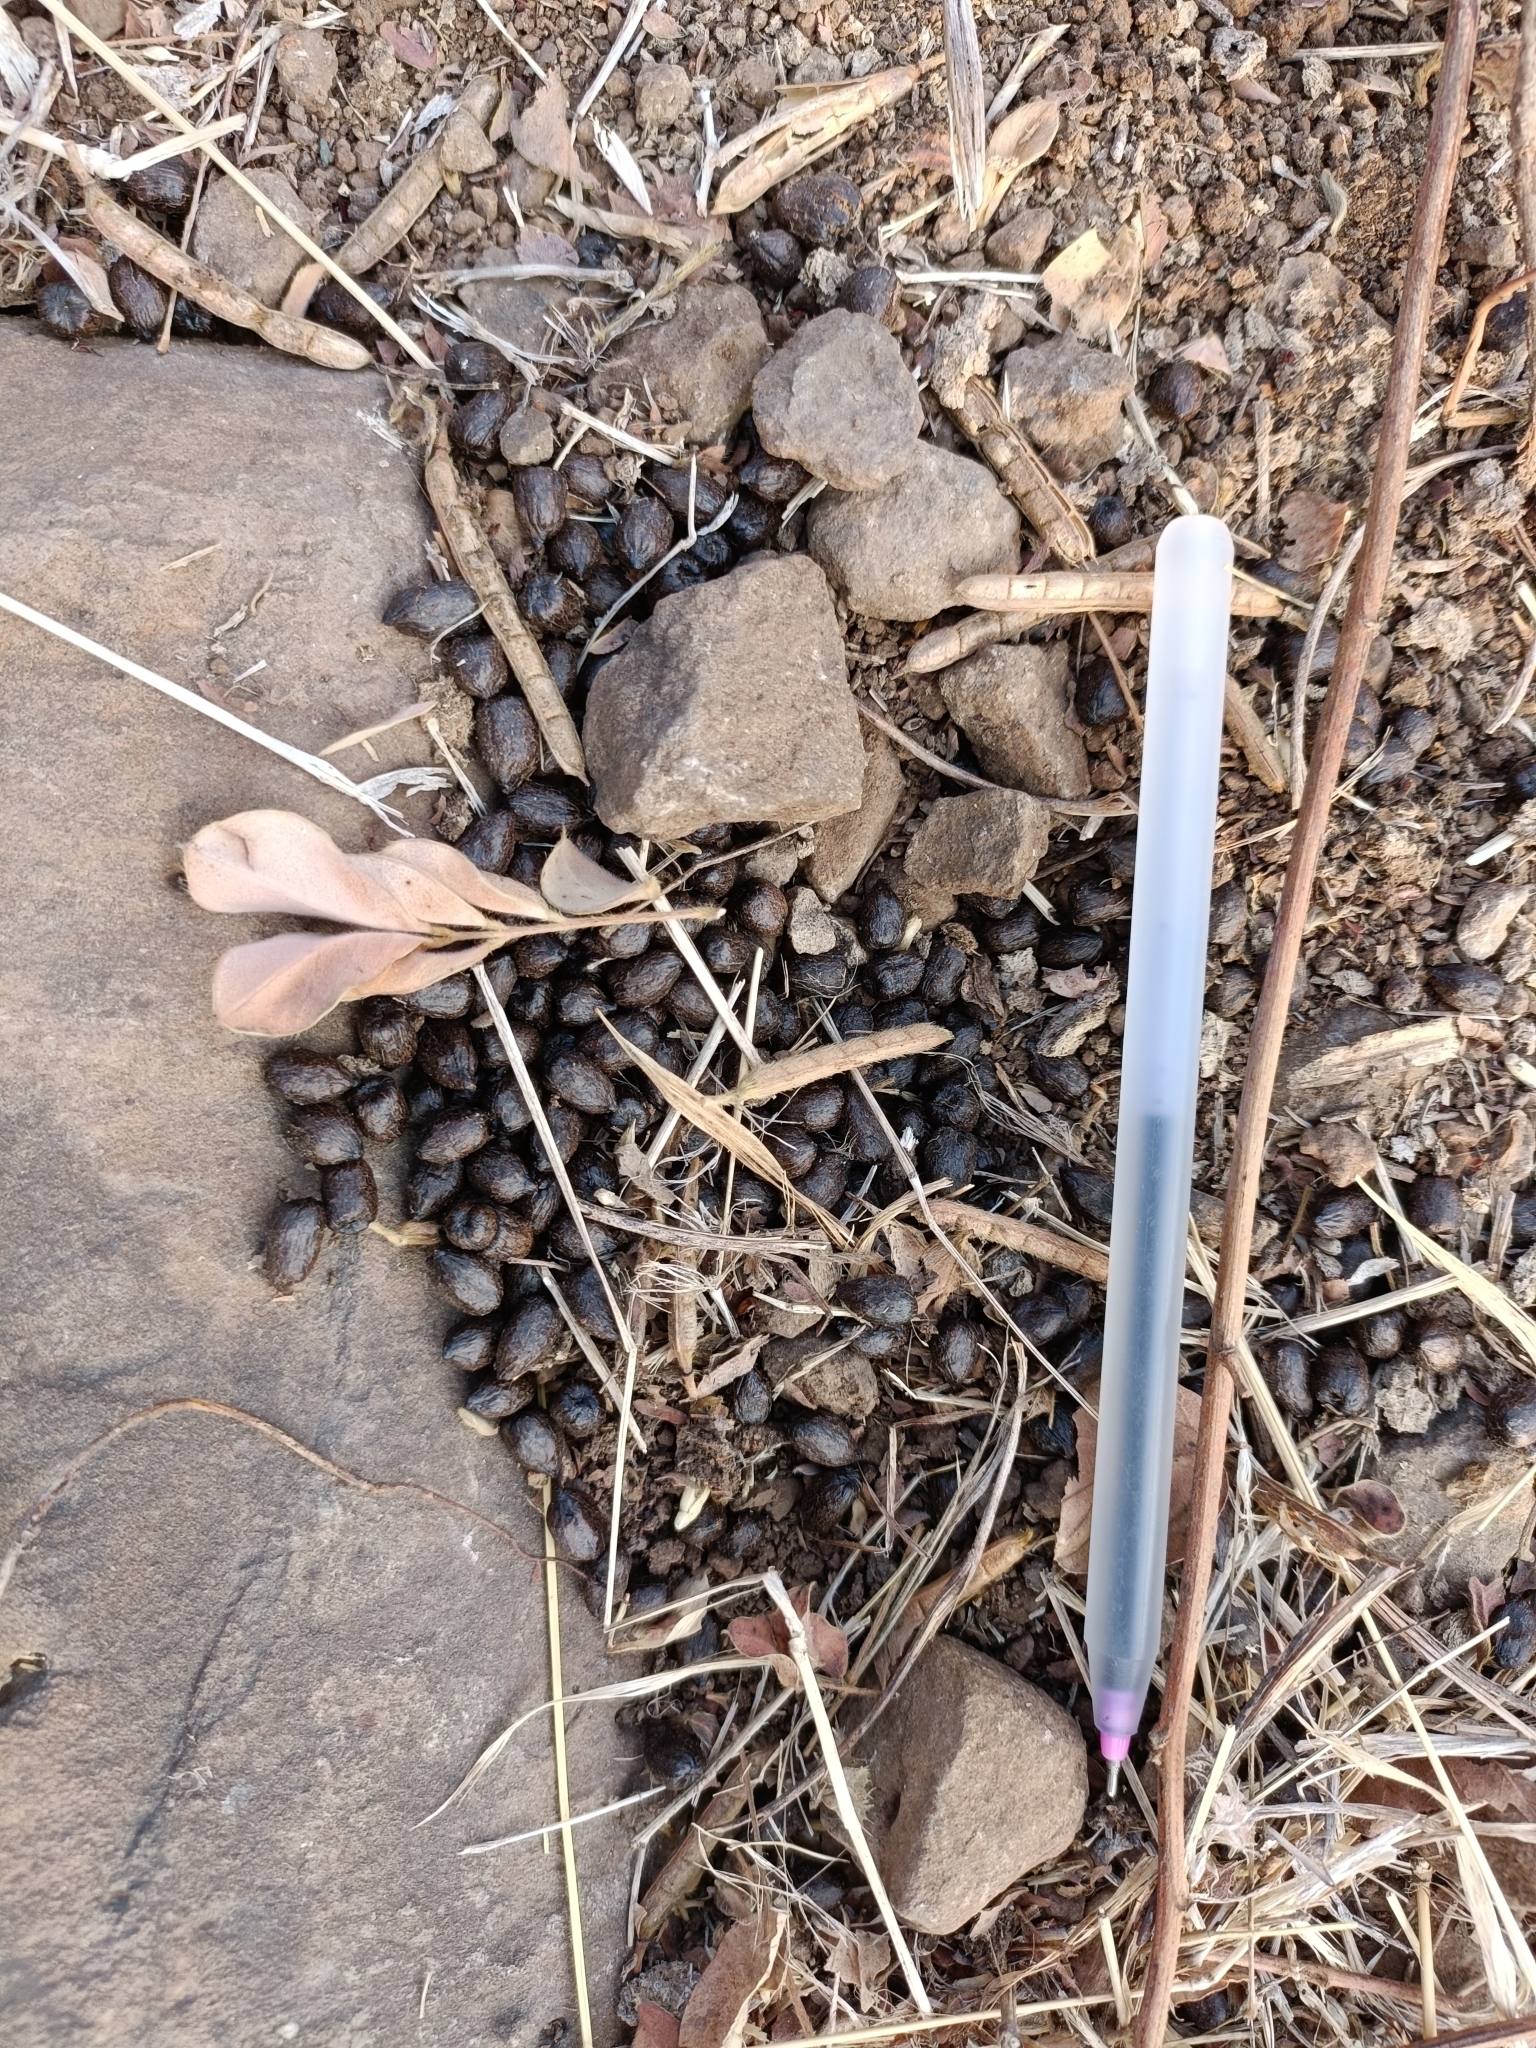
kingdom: Animalia
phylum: Chordata
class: Mammalia
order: Artiodactyla
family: Bovidae
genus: Gazella
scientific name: Gazella bennettii
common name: Indian gazelle
